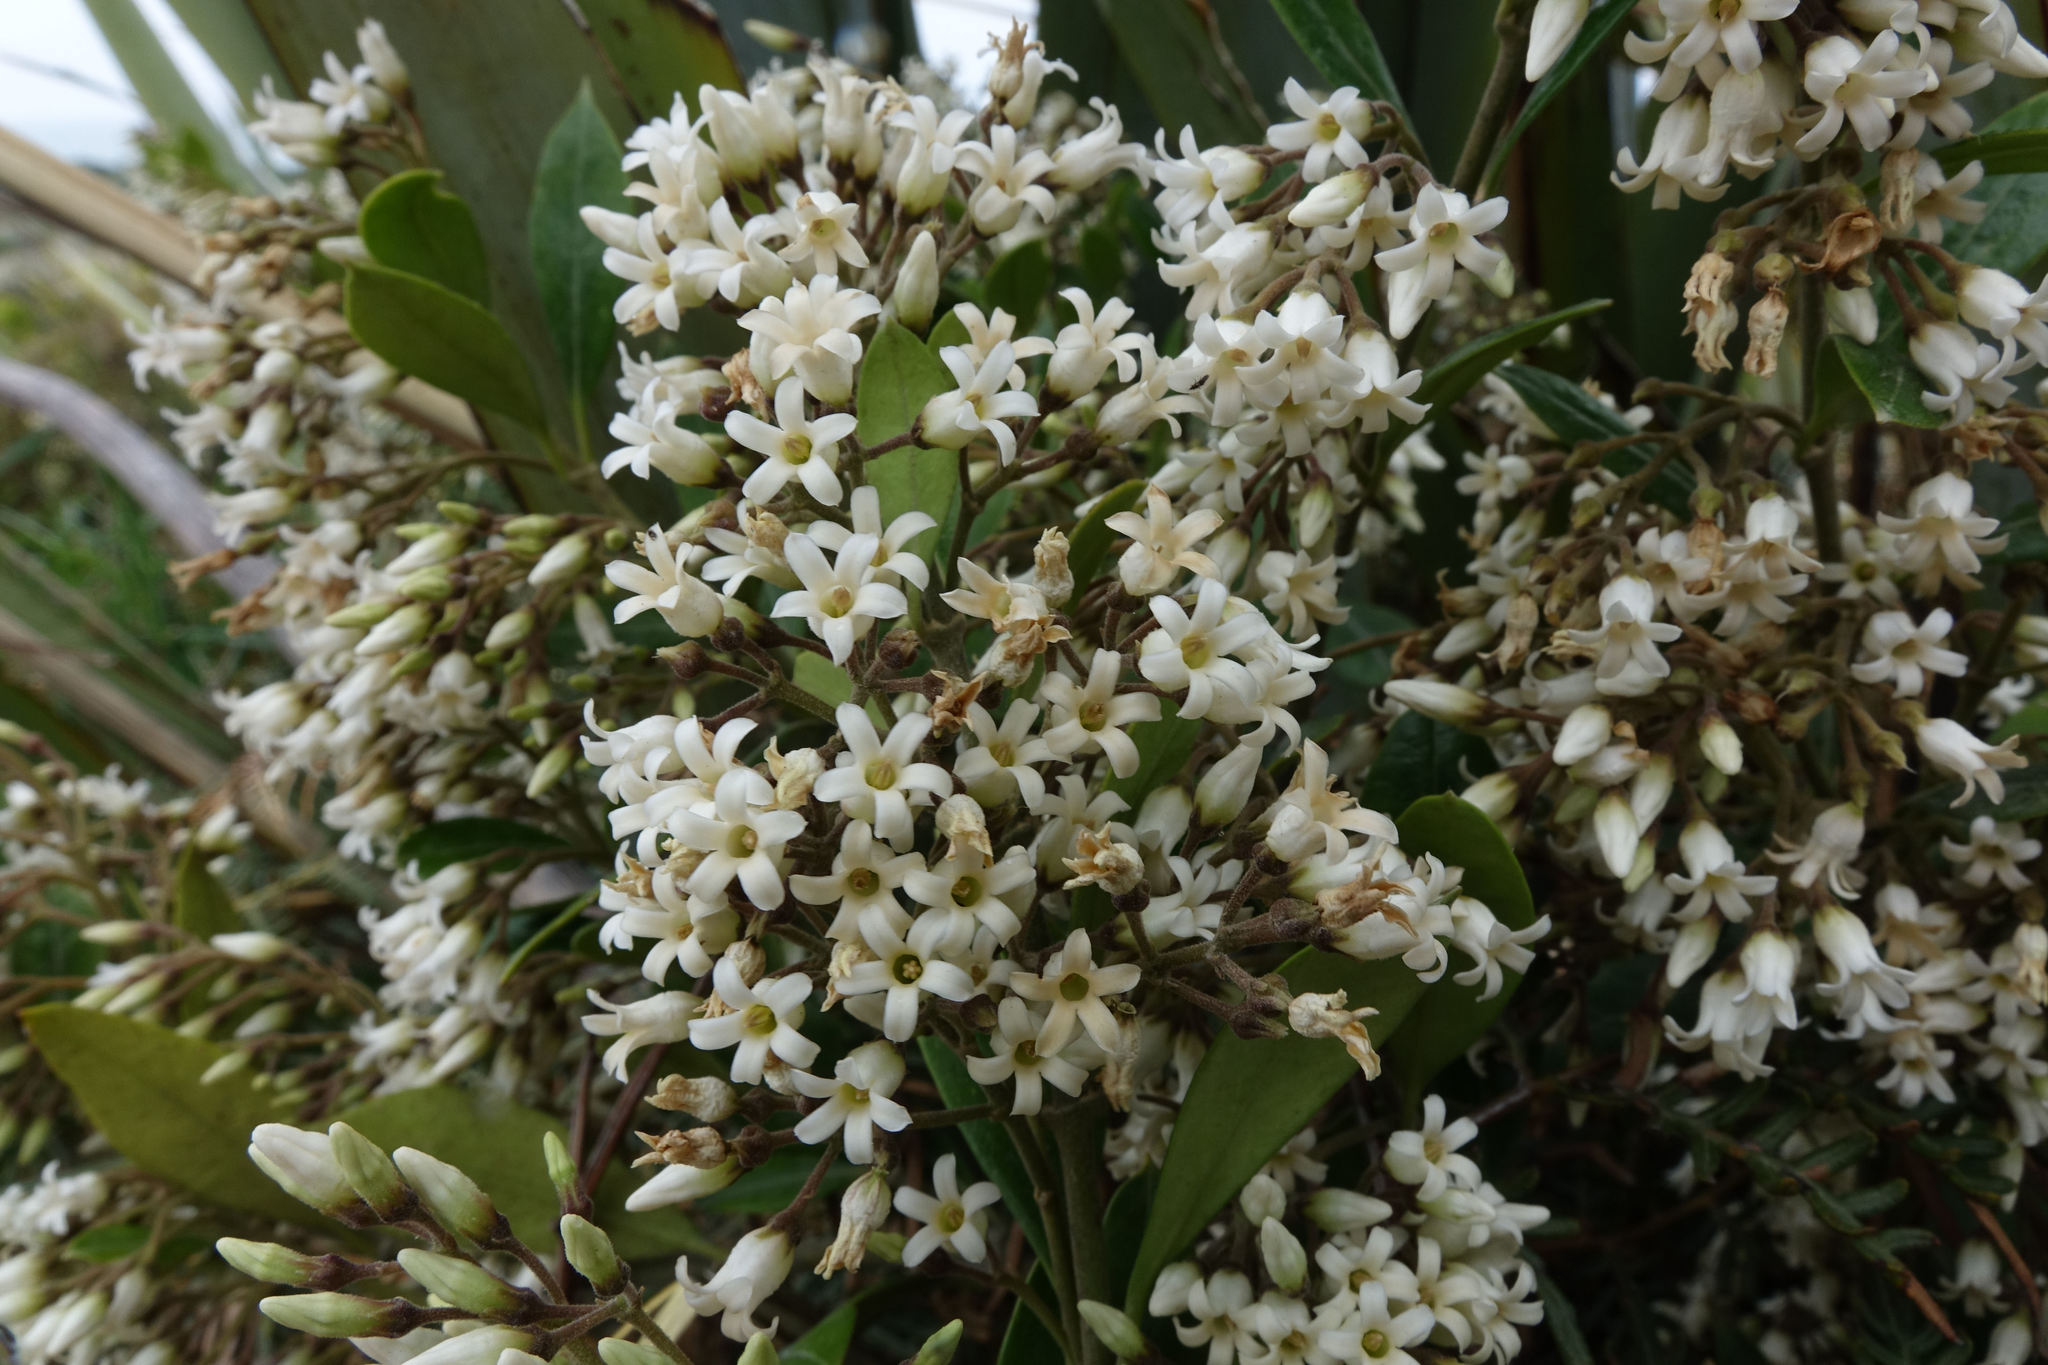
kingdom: Plantae
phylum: Tracheophyta
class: Magnoliopsida
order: Gentianales
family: Apocynaceae
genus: Parsonsia
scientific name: Parsonsia heterophylla
